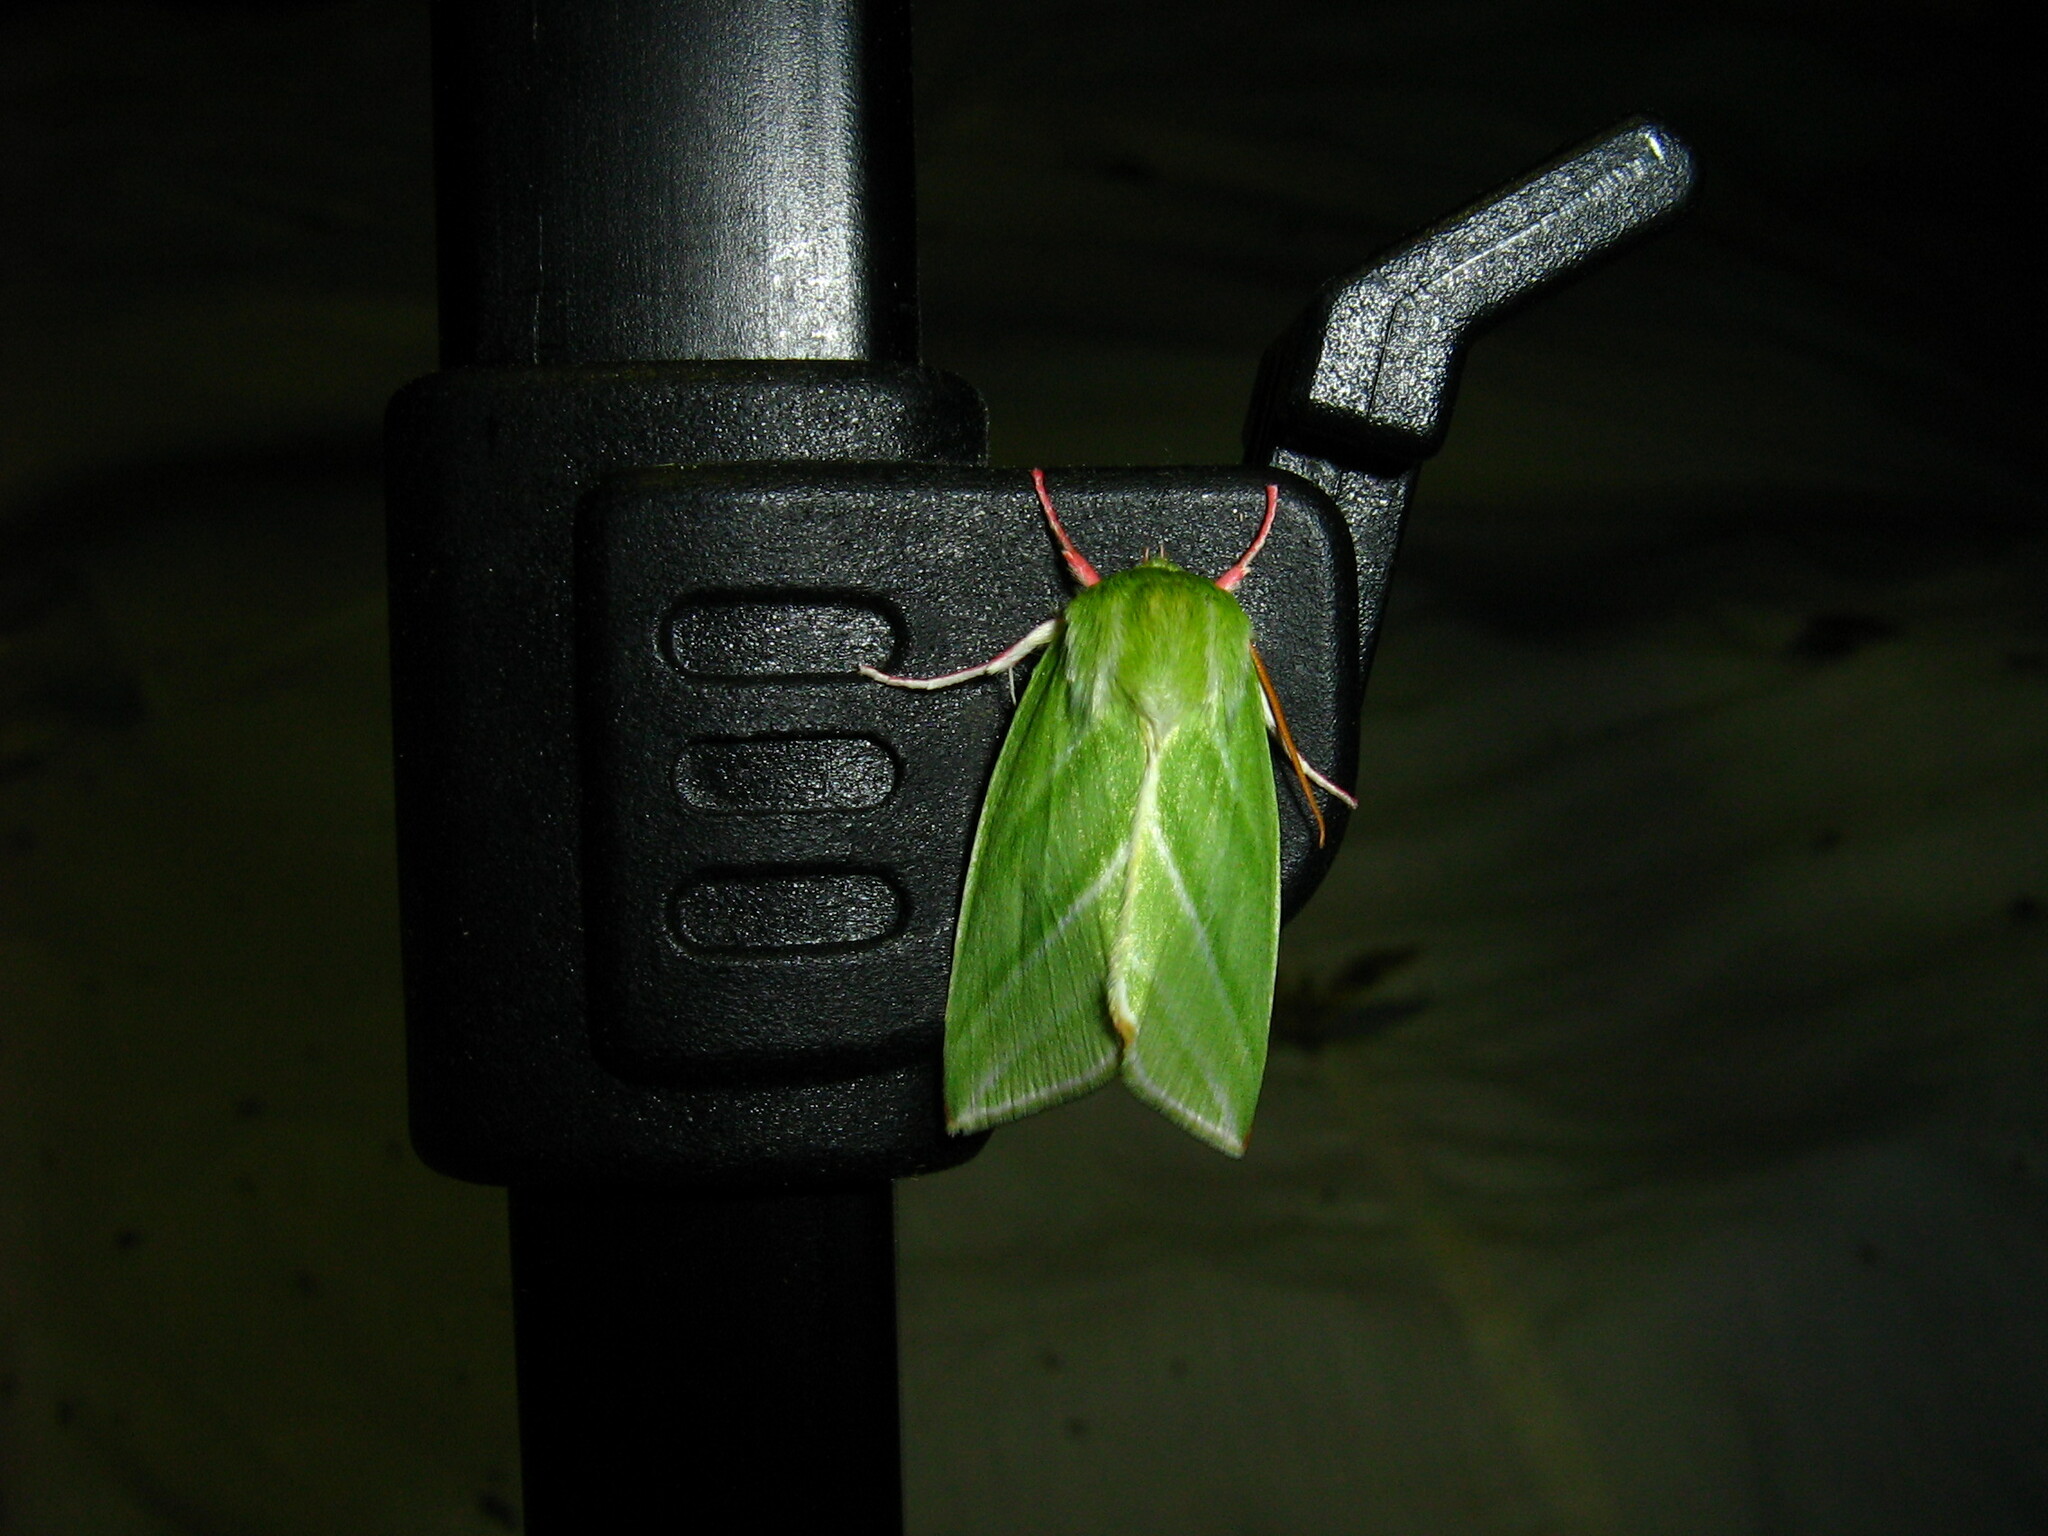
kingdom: Animalia
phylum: Arthropoda
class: Insecta
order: Lepidoptera
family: Nolidae
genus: Pseudoips
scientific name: Pseudoips prasinana
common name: Green silver-lines
